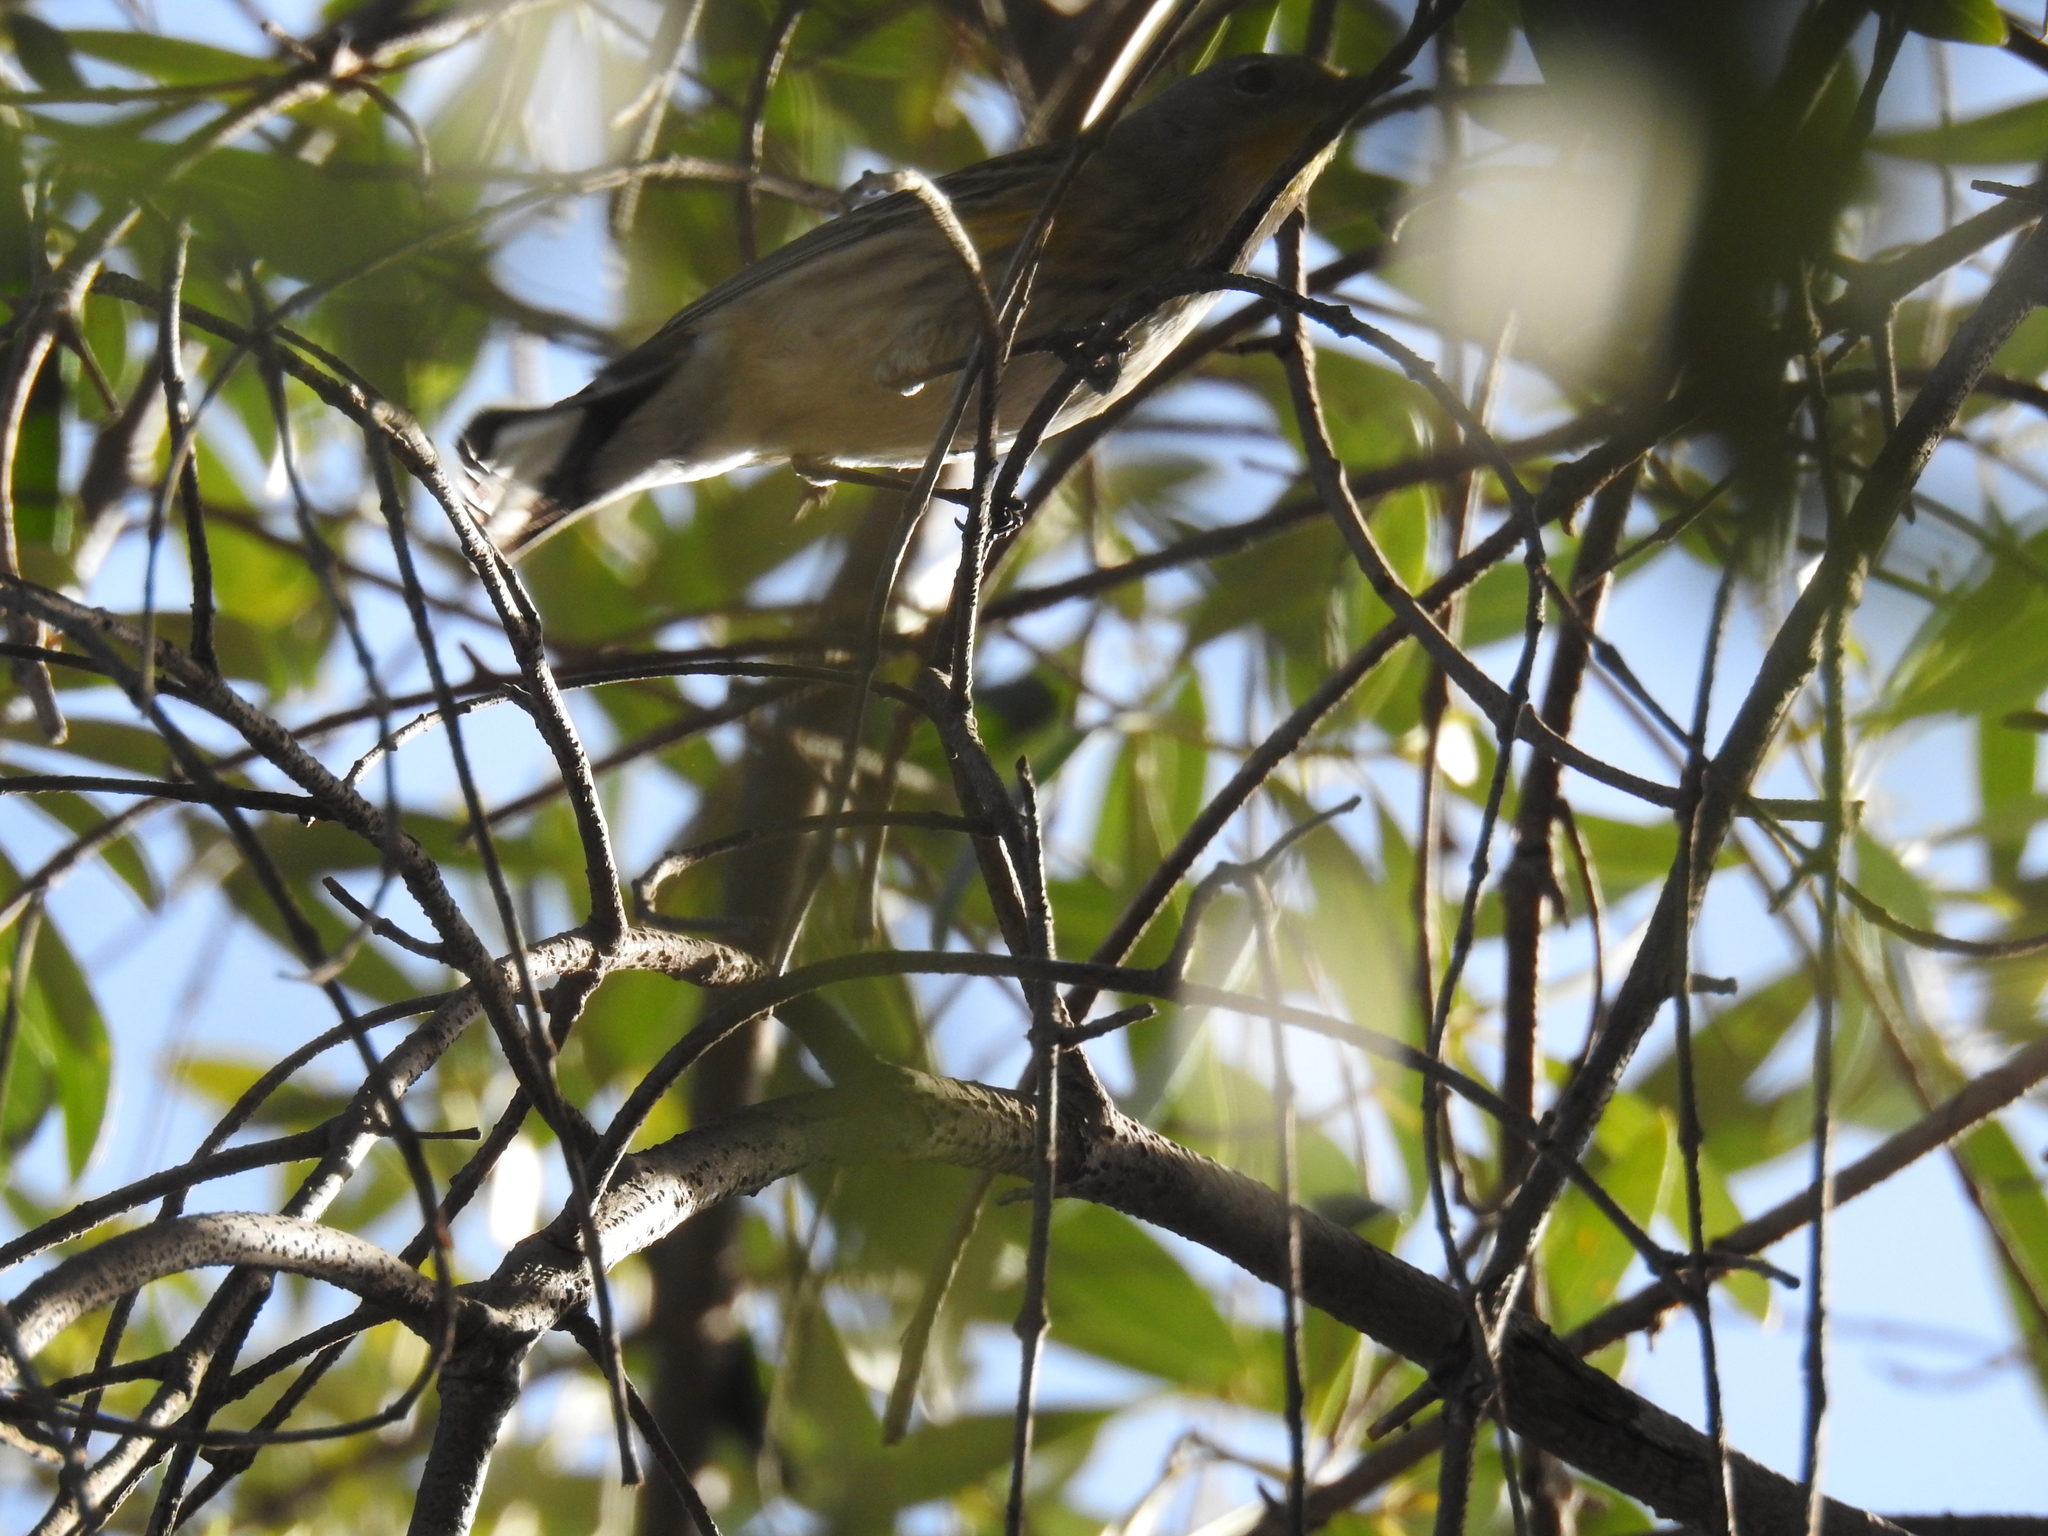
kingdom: Animalia
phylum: Chordata
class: Aves
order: Passeriformes
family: Parulidae
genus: Setophaga
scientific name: Setophaga coronata
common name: Myrtle warbler
